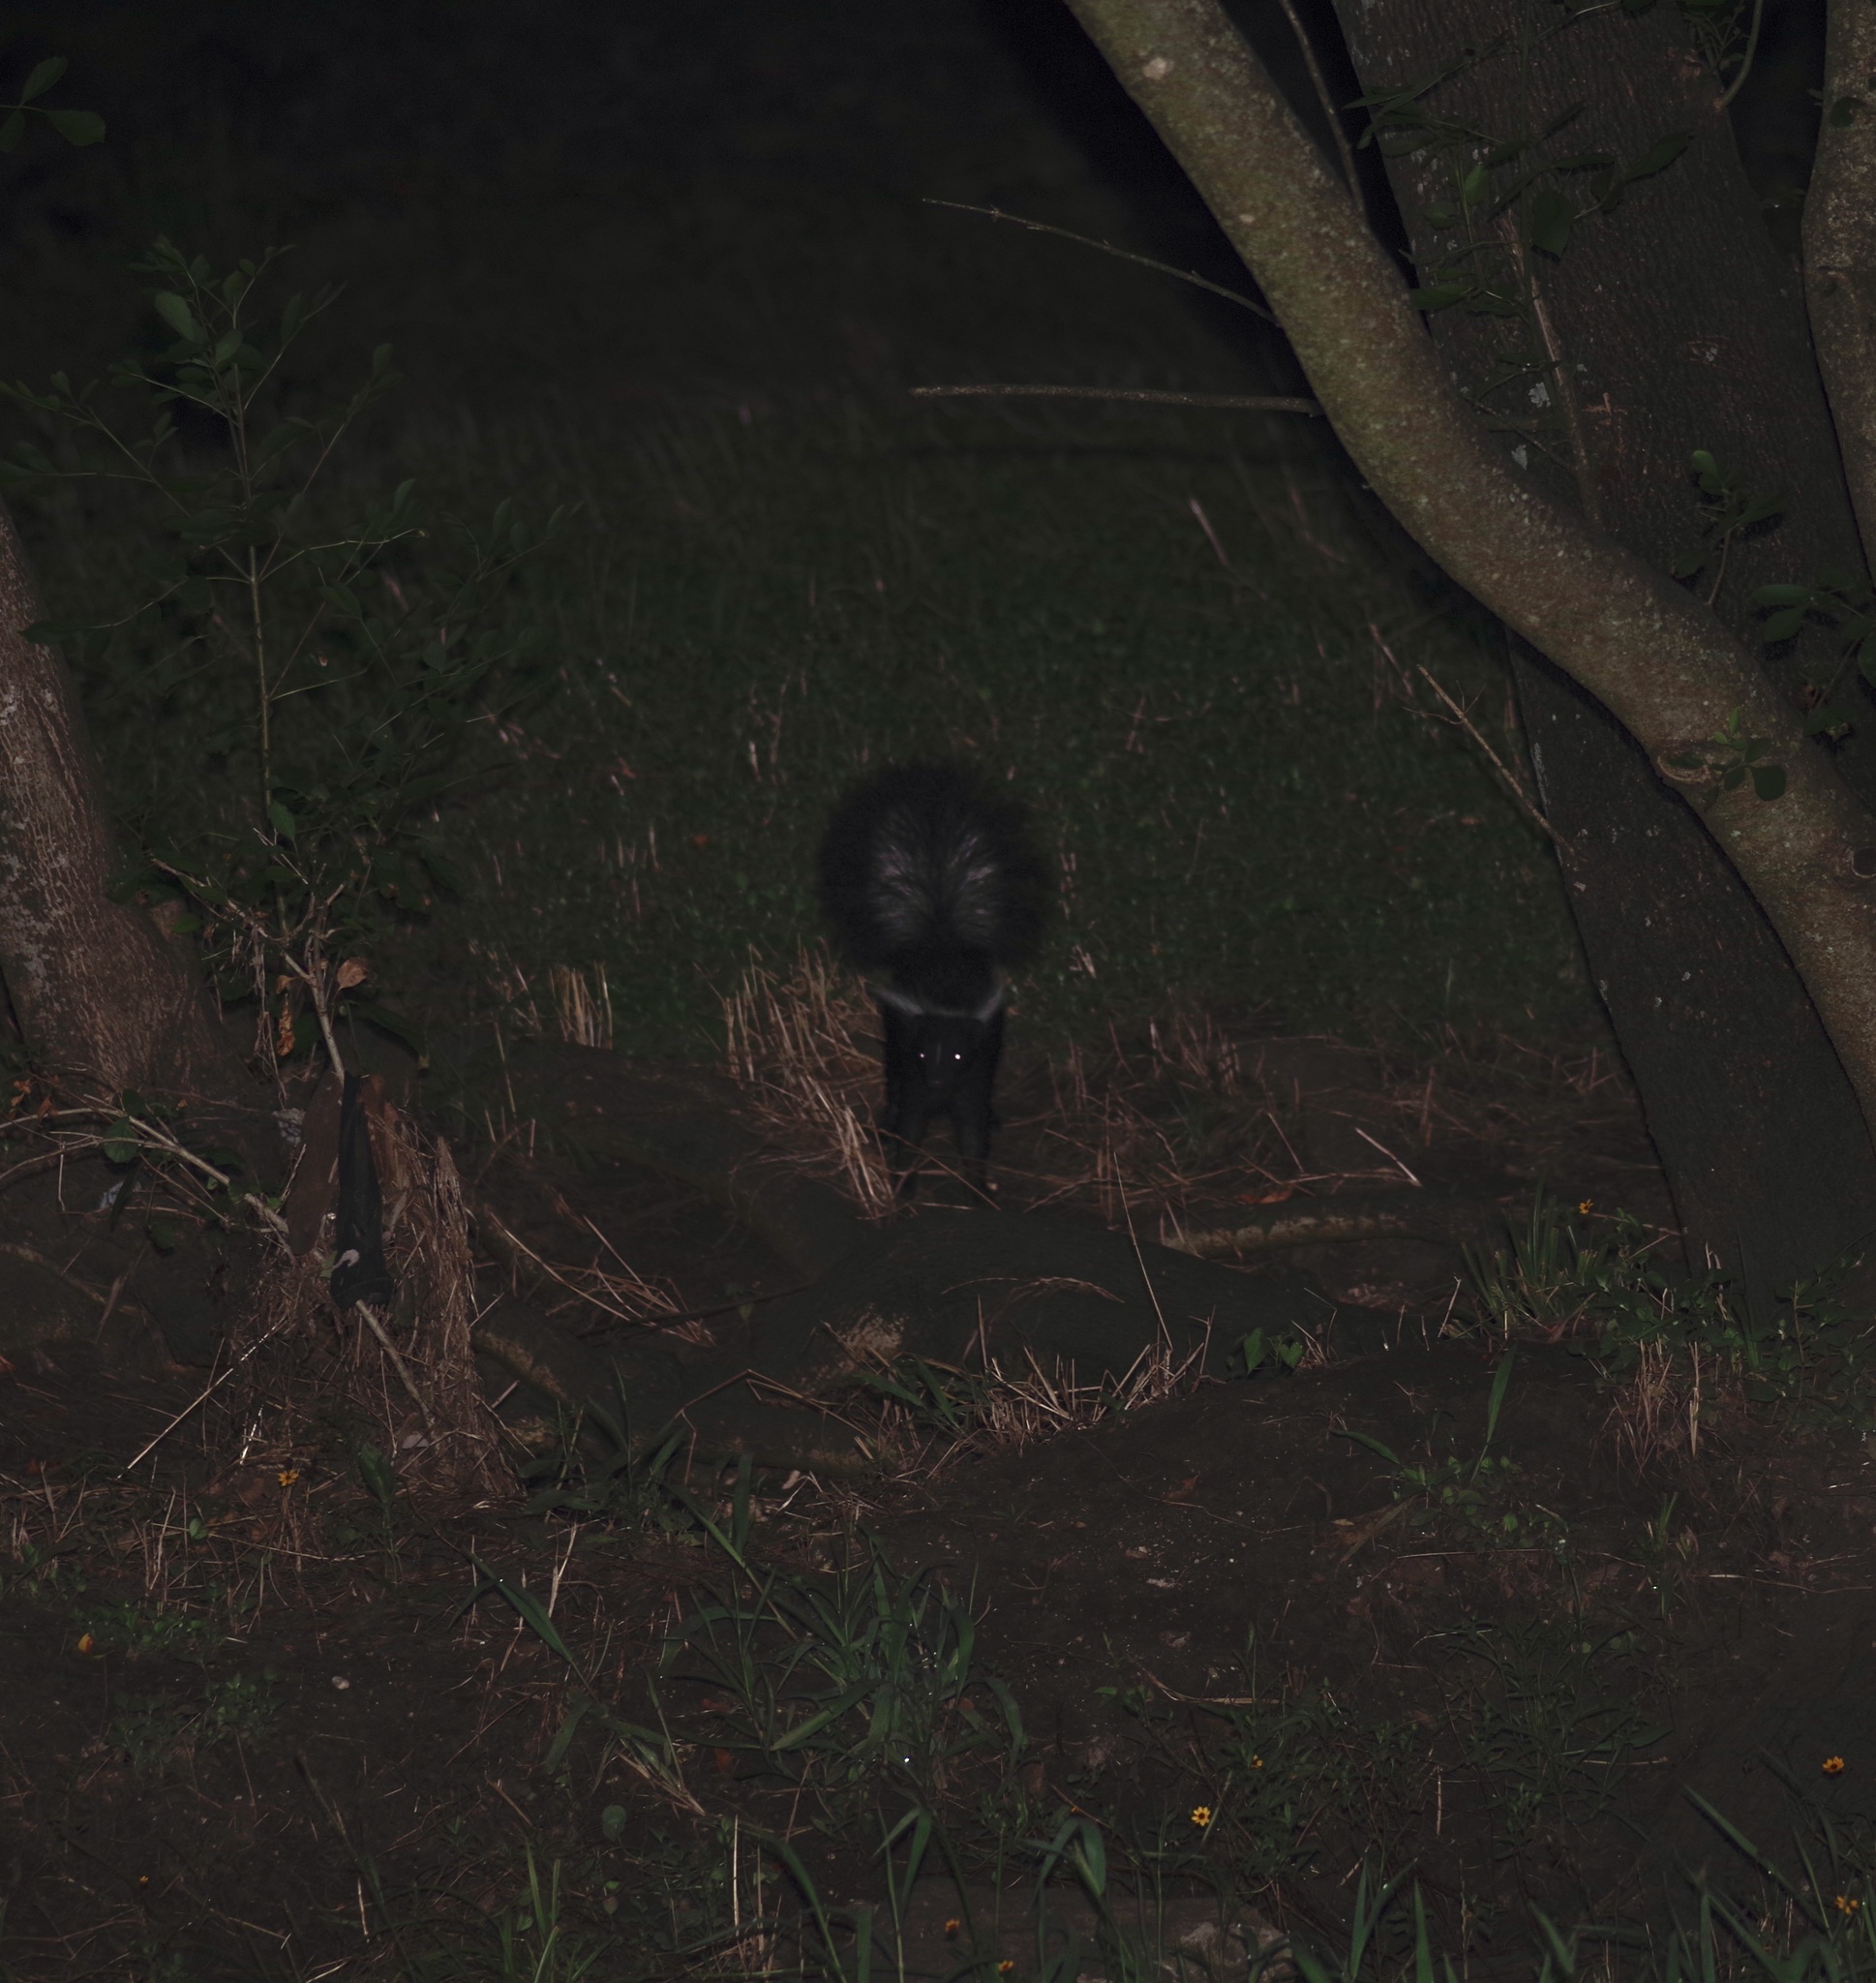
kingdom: Animalia
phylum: Chordata
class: Mammalia
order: Carnivora
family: Mephitidae
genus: Mephitis
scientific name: Mephitis mephitis
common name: Striped skunk
